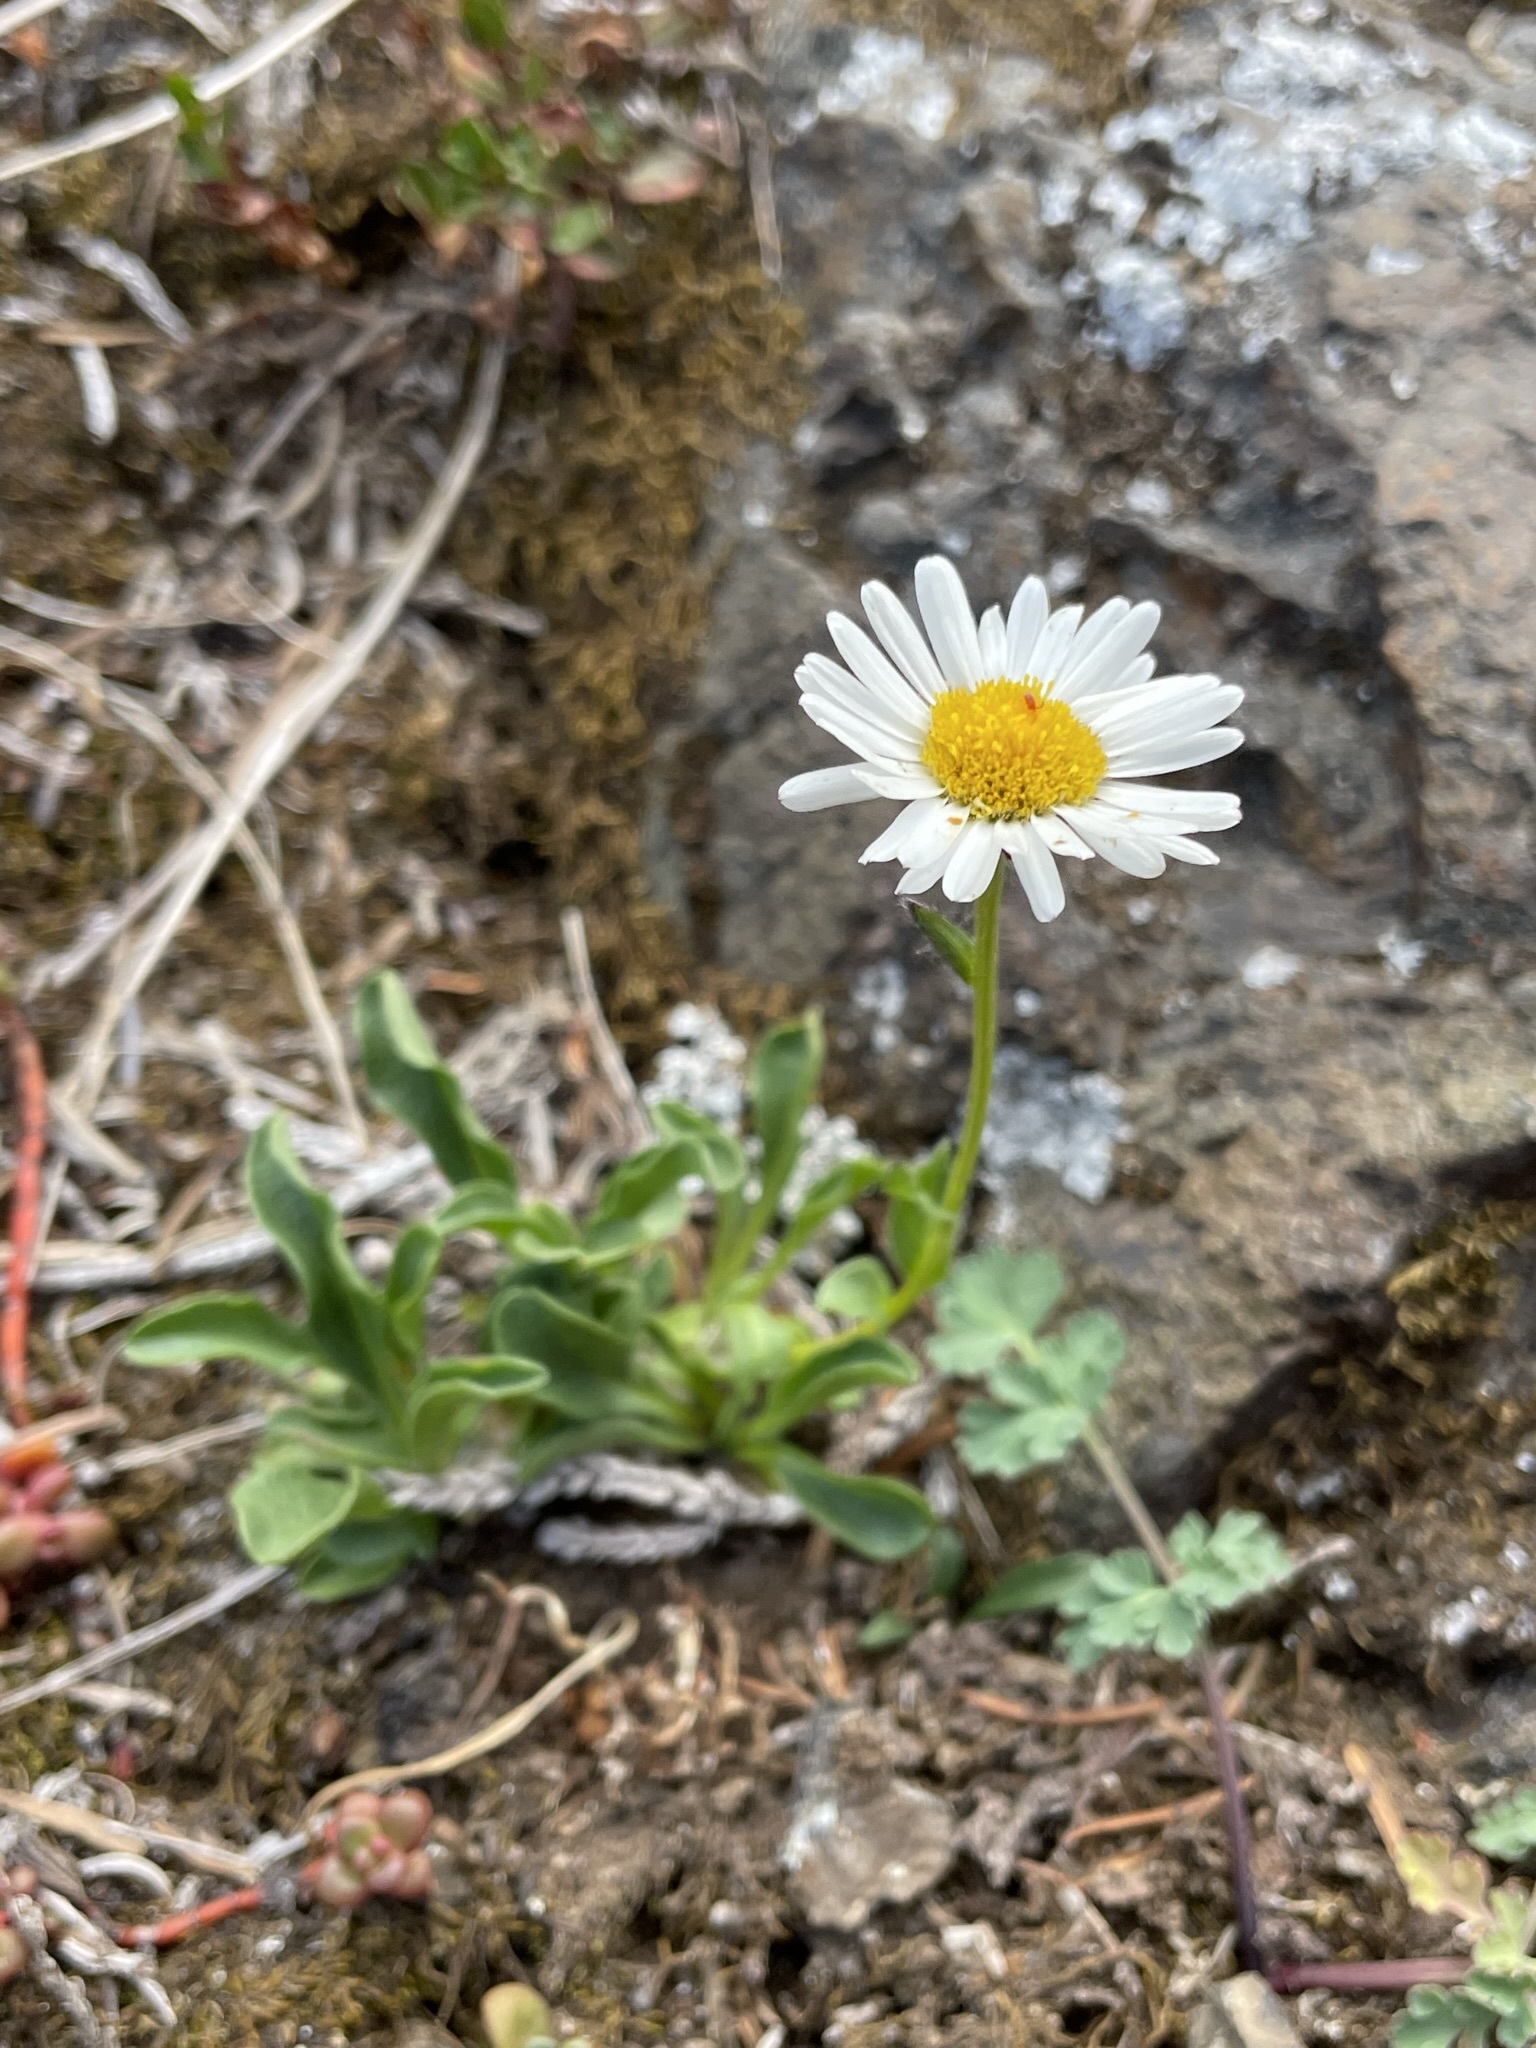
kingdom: Plantae
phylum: Tracheophyta
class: Magnoliopsida
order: Asterales
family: Asteraceae
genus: Erigeron
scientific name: Erigeron flettii
